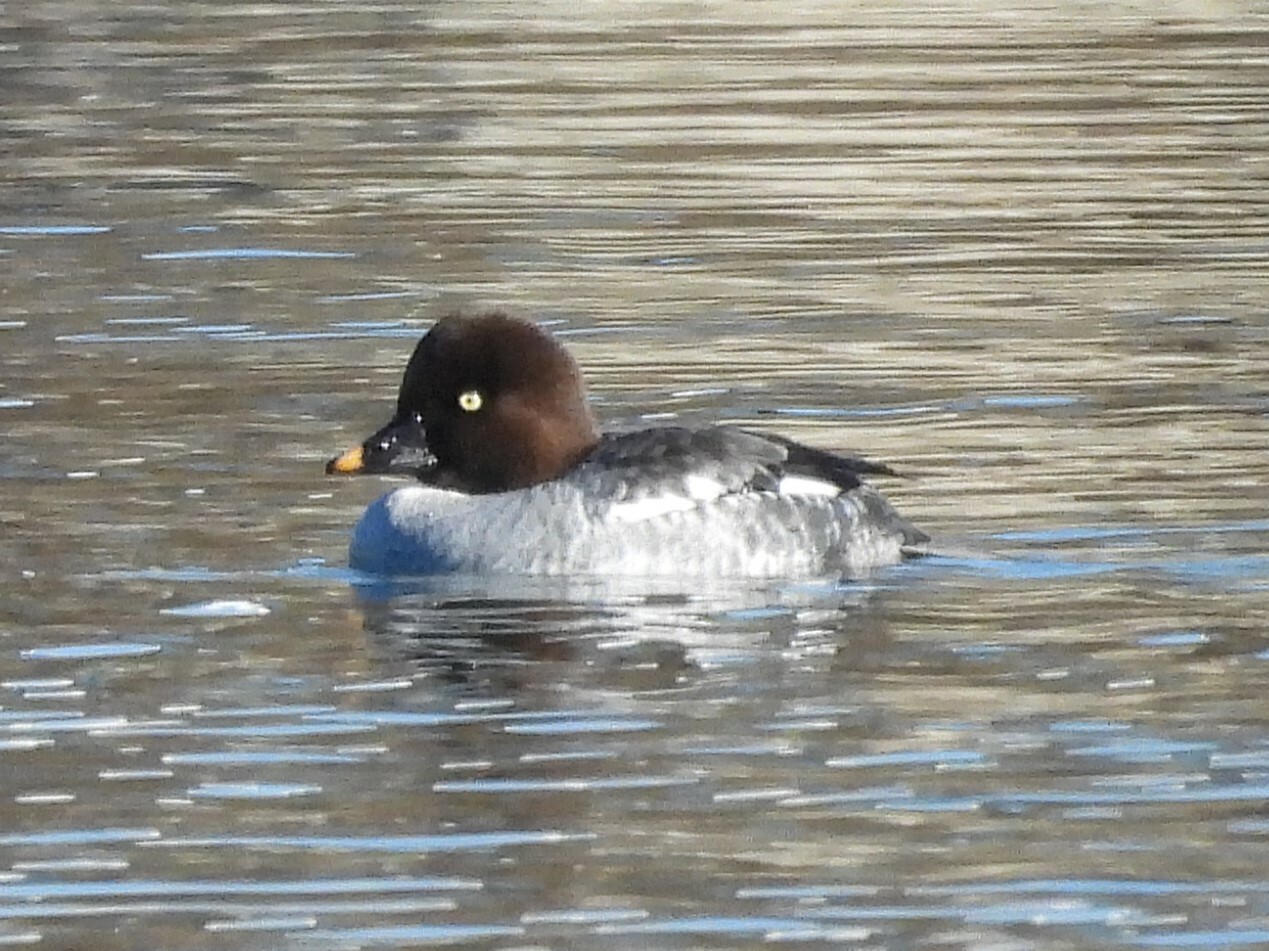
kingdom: Animalia
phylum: Chordata
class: Aves
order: Anseriformes
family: Anatidae
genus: Bucephala
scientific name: Bucephala clangula
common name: Common goldeneye
